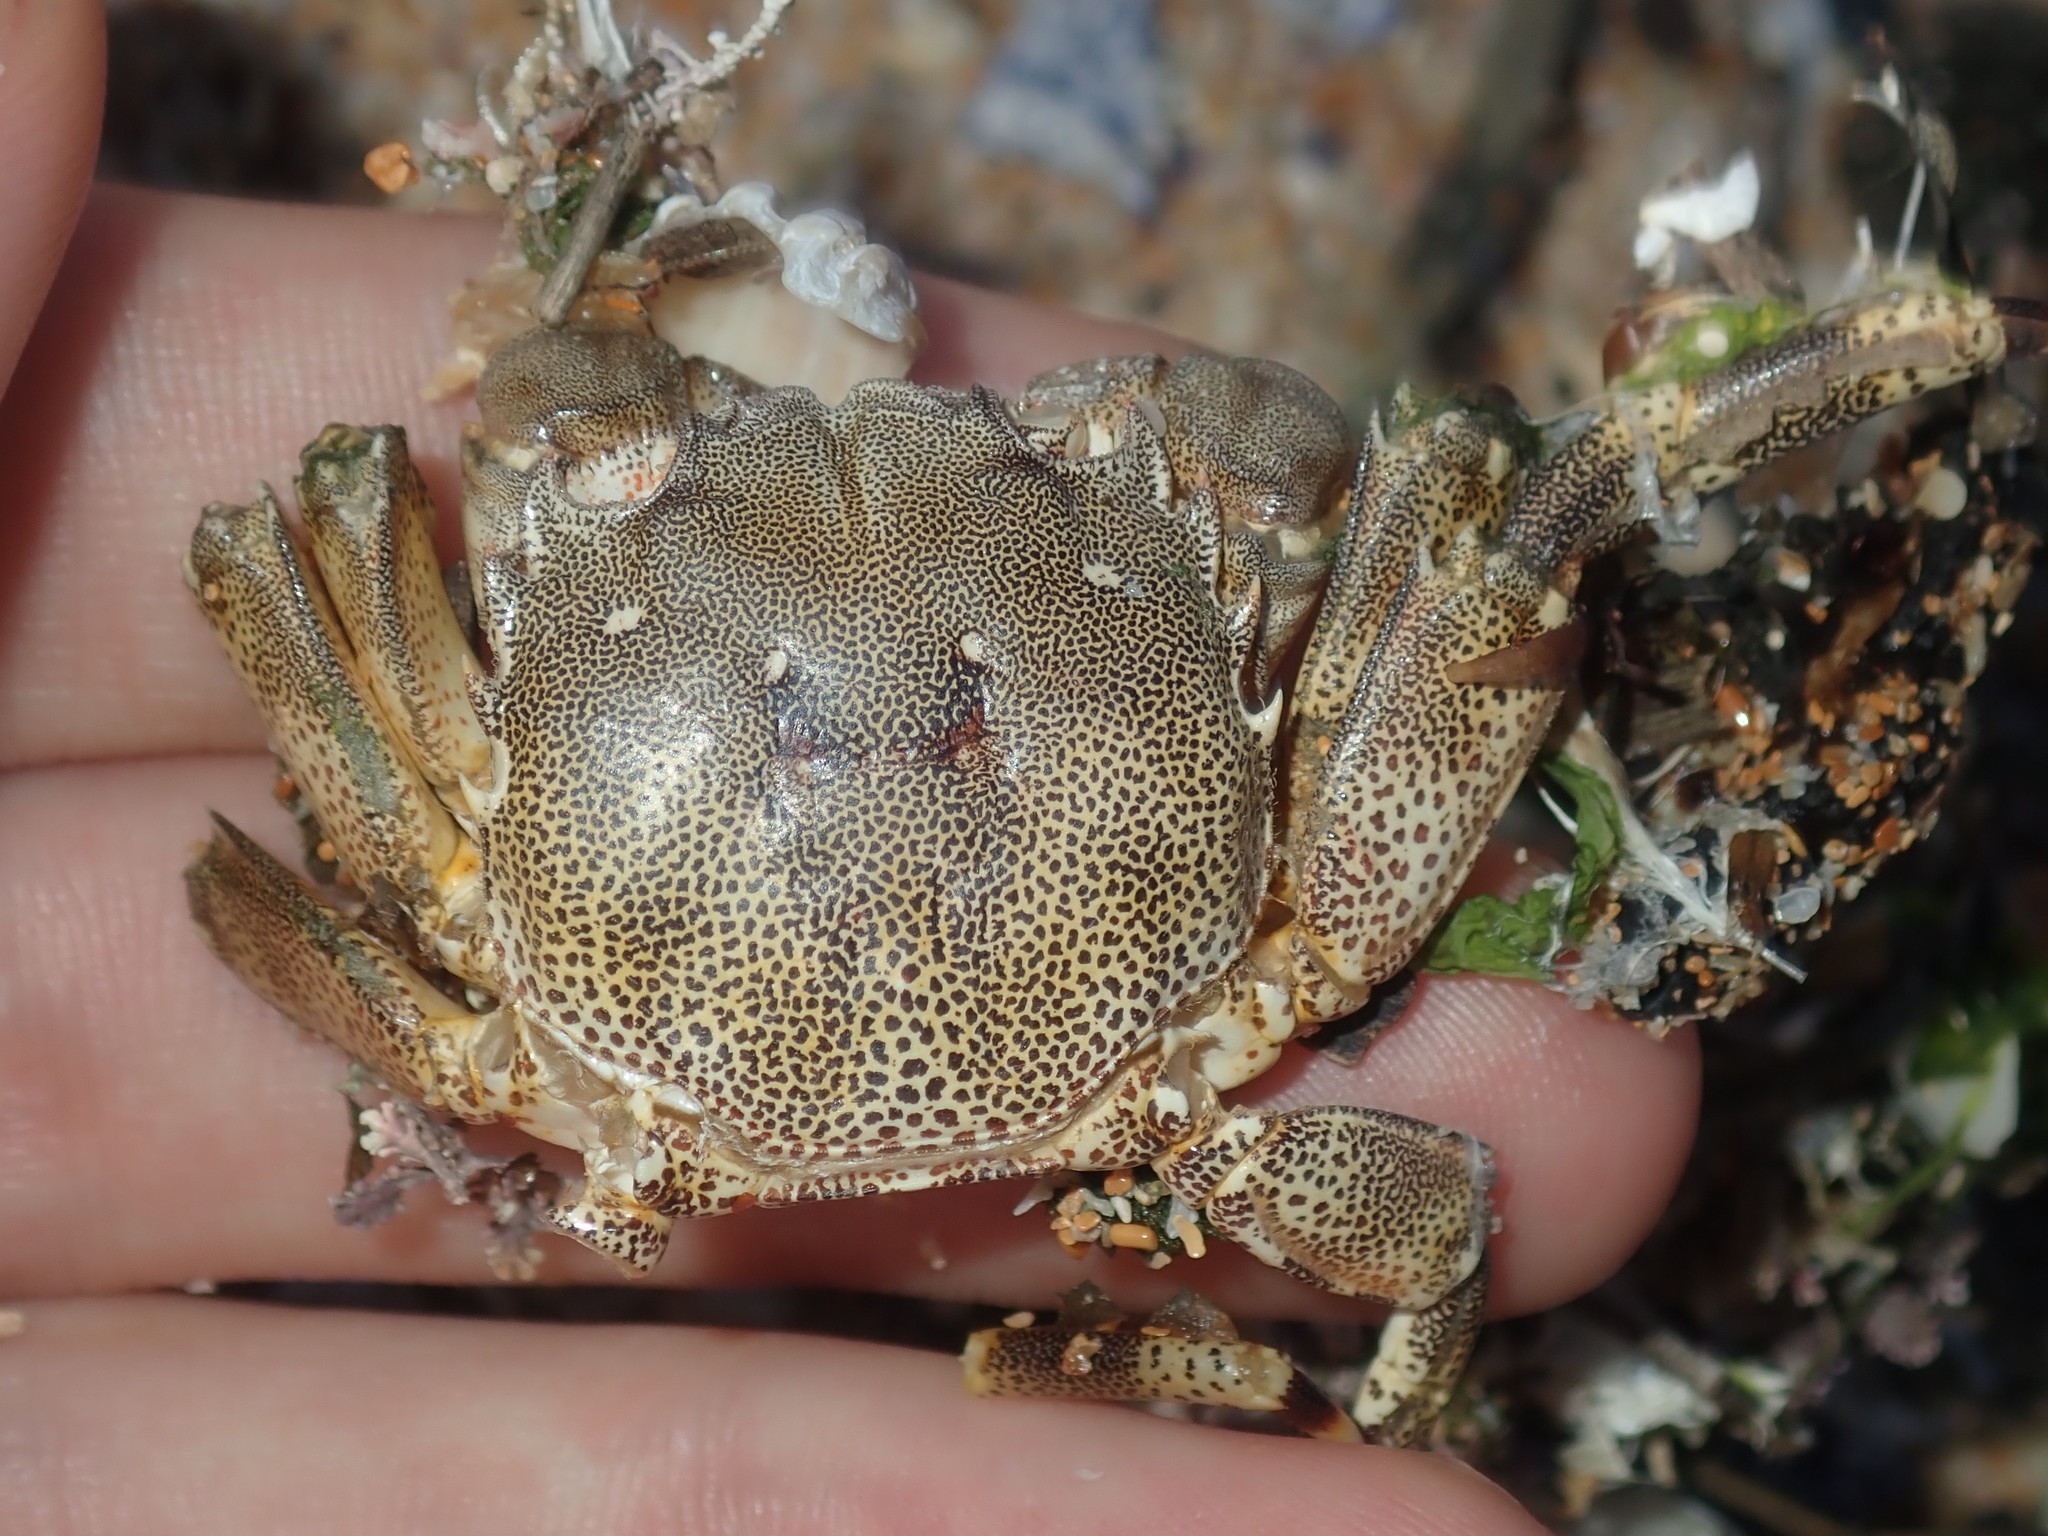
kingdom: Animalia
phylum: Arthropoda
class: Malacostraca
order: Decapoda
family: Plagusiidae
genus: Davusia
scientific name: Davusia glabra
